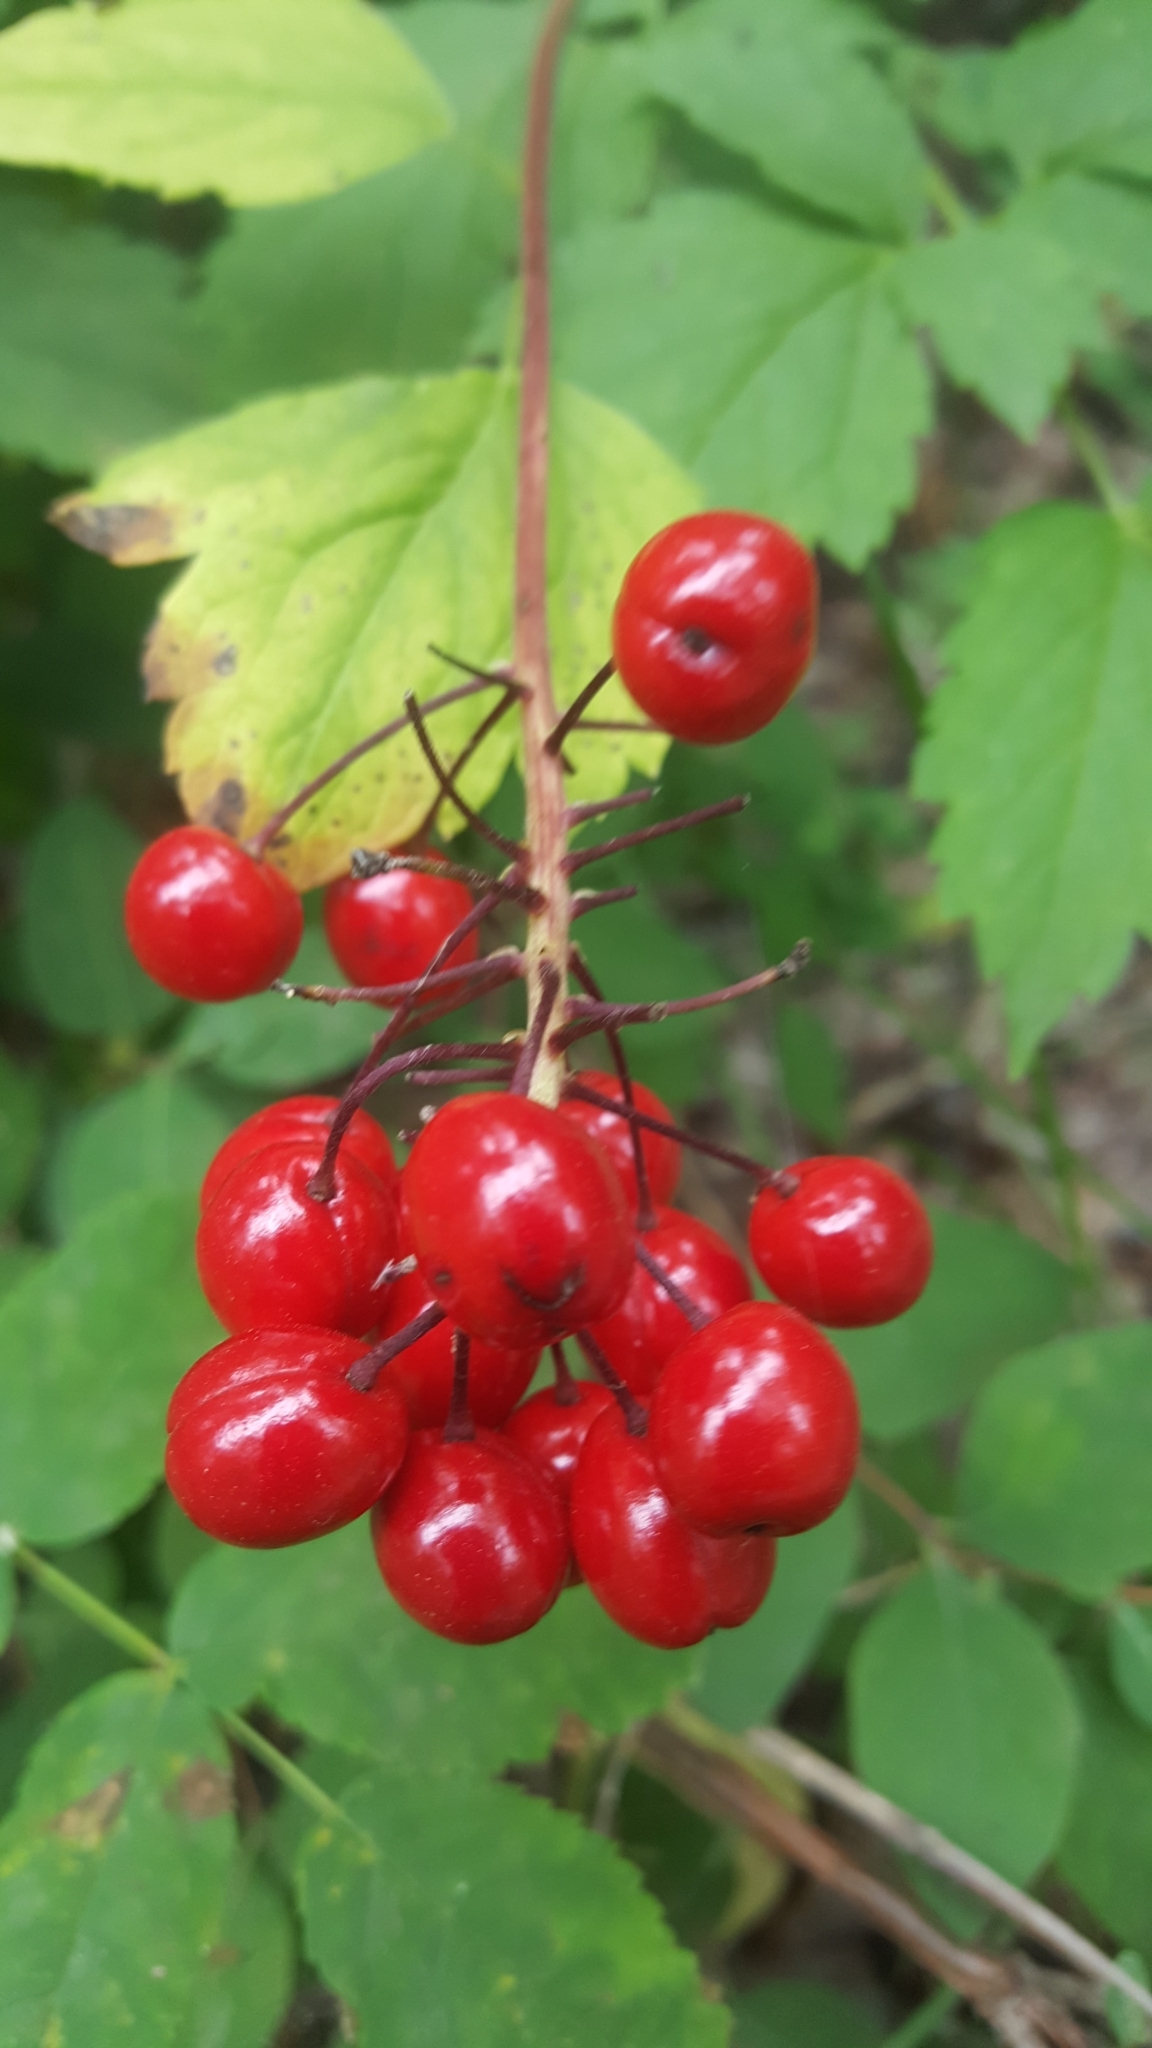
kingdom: Plantae
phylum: Tracheophyta
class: Magnoliopsida
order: Ranunculales
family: Ranunculaceae
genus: Actaea
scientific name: Actaea rubra
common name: Red baneberry
